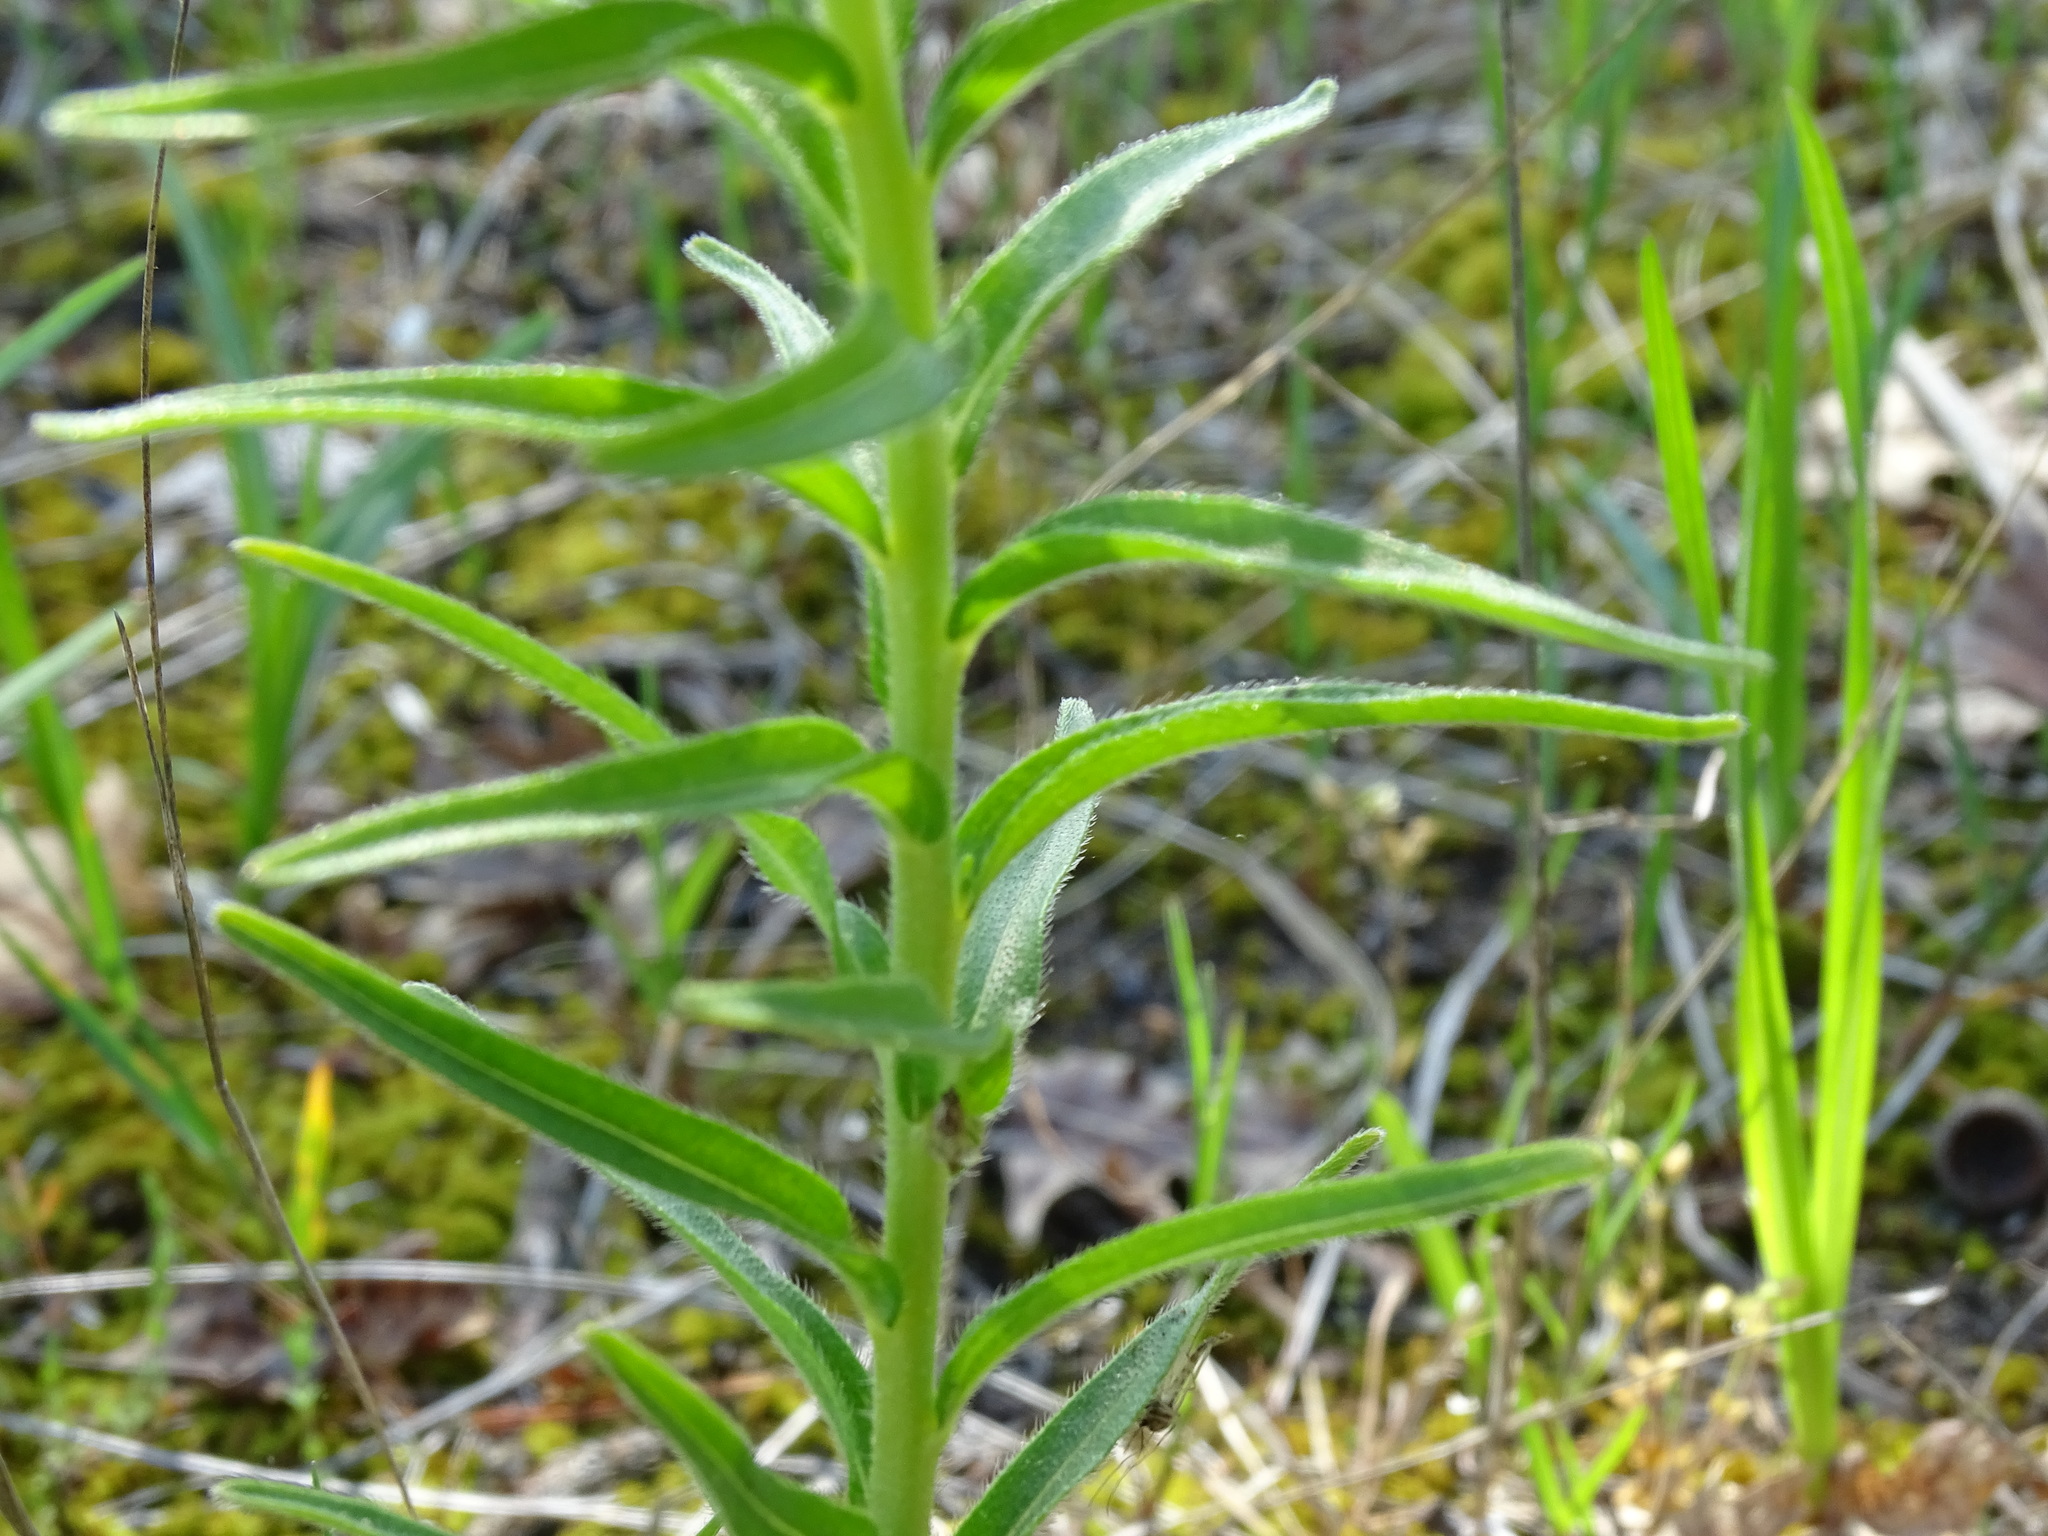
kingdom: Plantae
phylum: Tracheophyta
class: Magnoliopsida
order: Boraginales
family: Boraginaceae
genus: Lithospermum
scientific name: Lithospermum caroliniense
